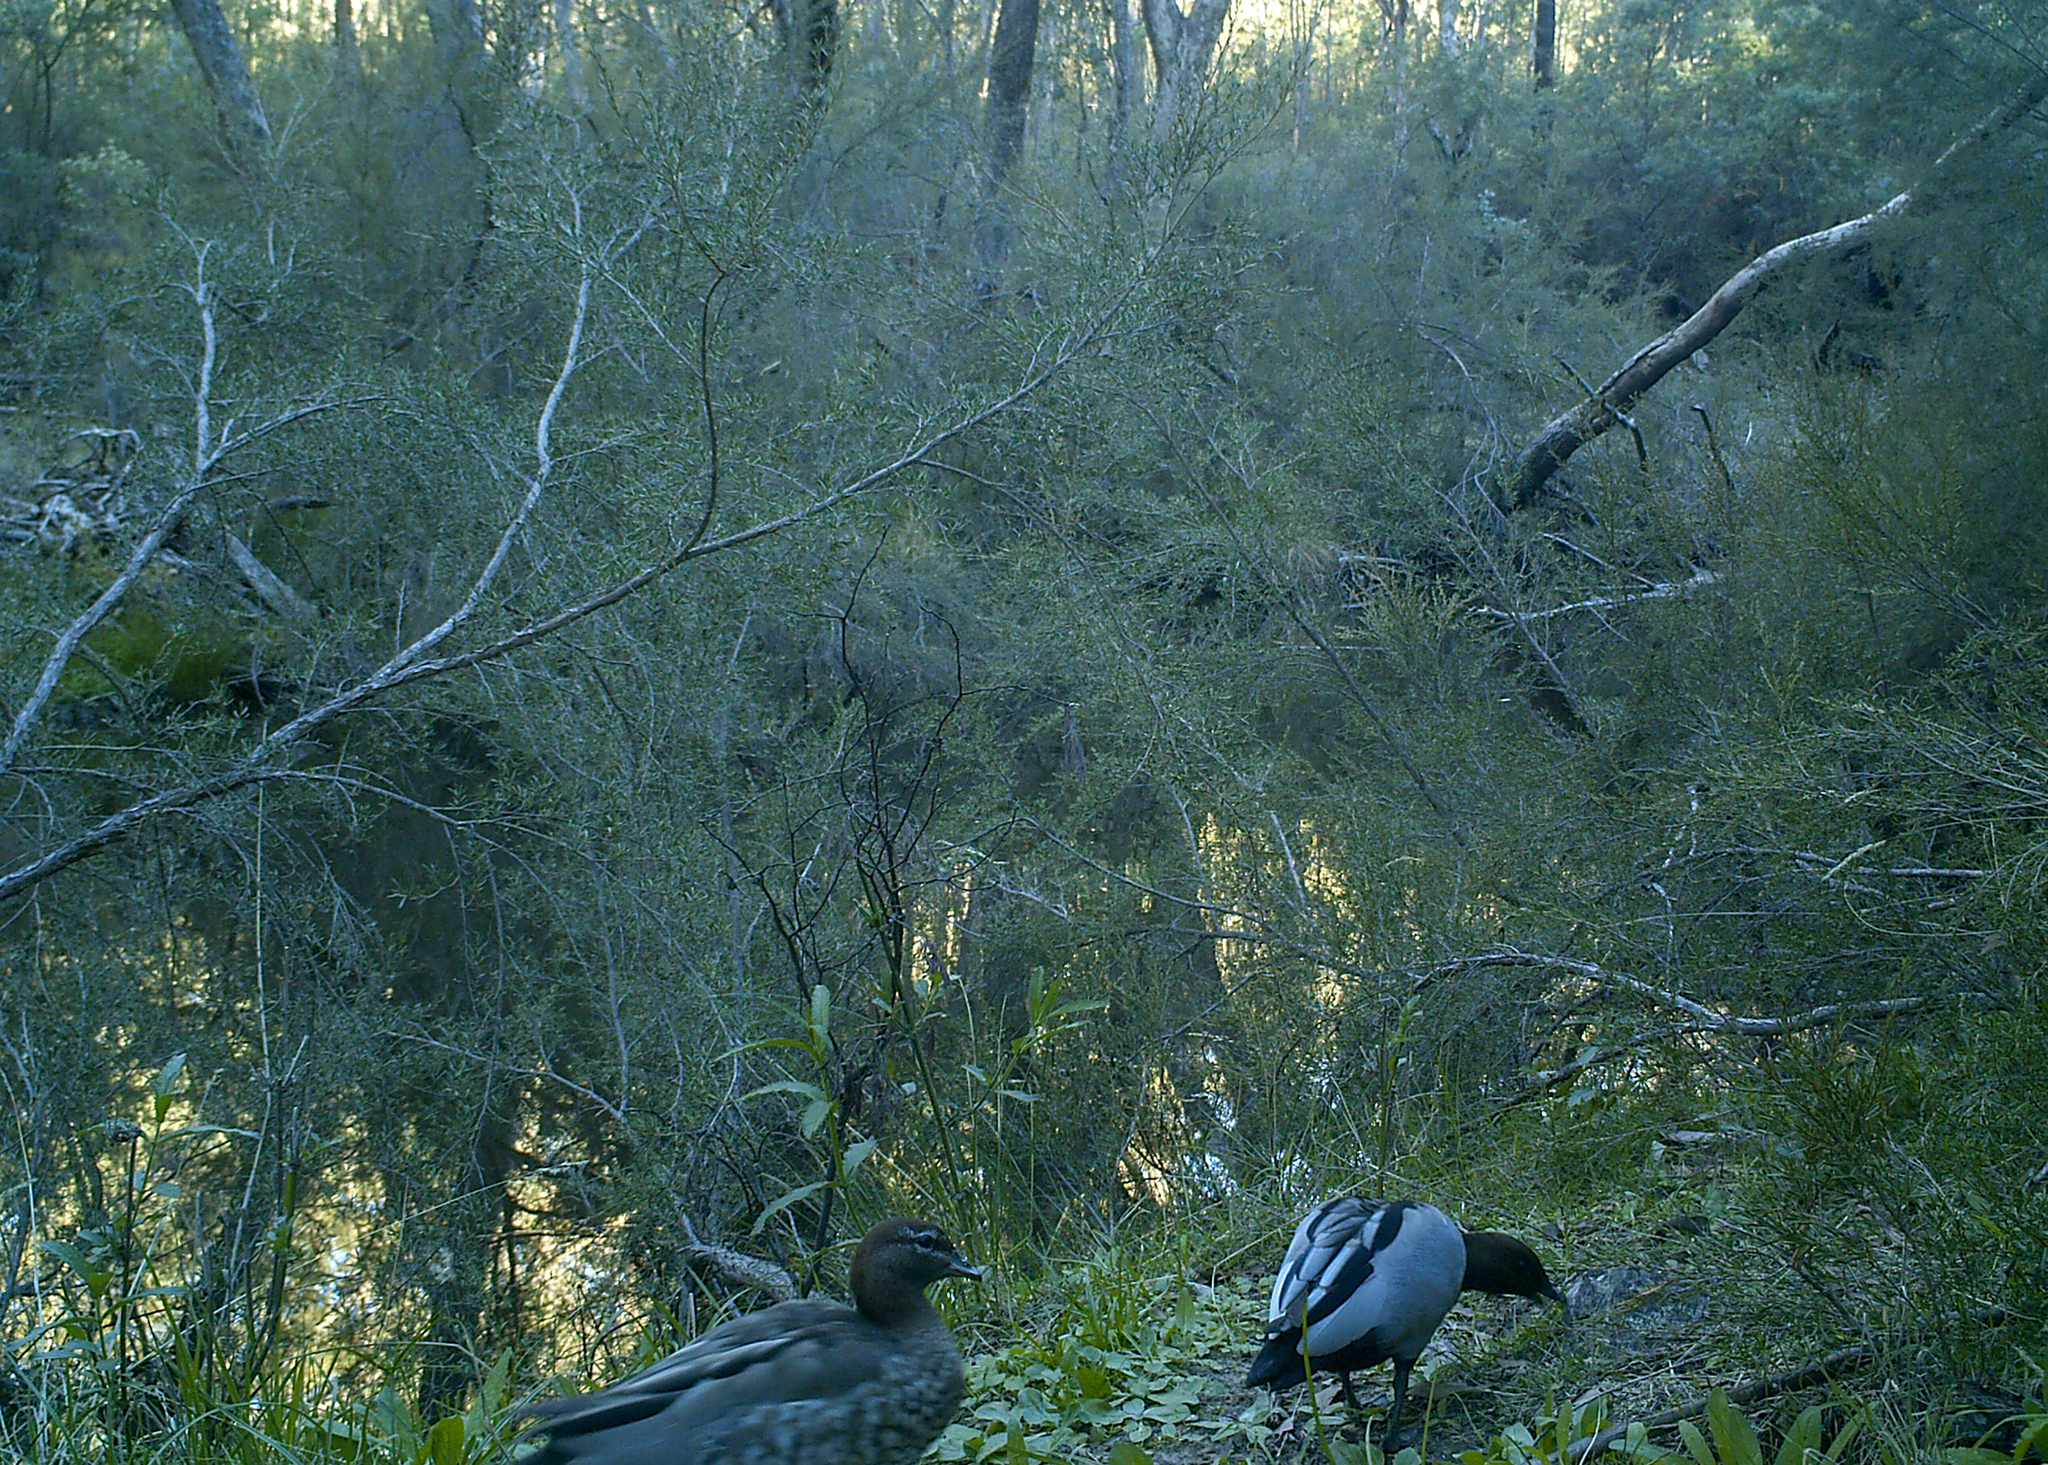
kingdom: Animalia
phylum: Chordata
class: Aves
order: Anseriformes
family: Anatidae
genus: Chenonetta
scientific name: Chenonetta jubata
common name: Maned duck
